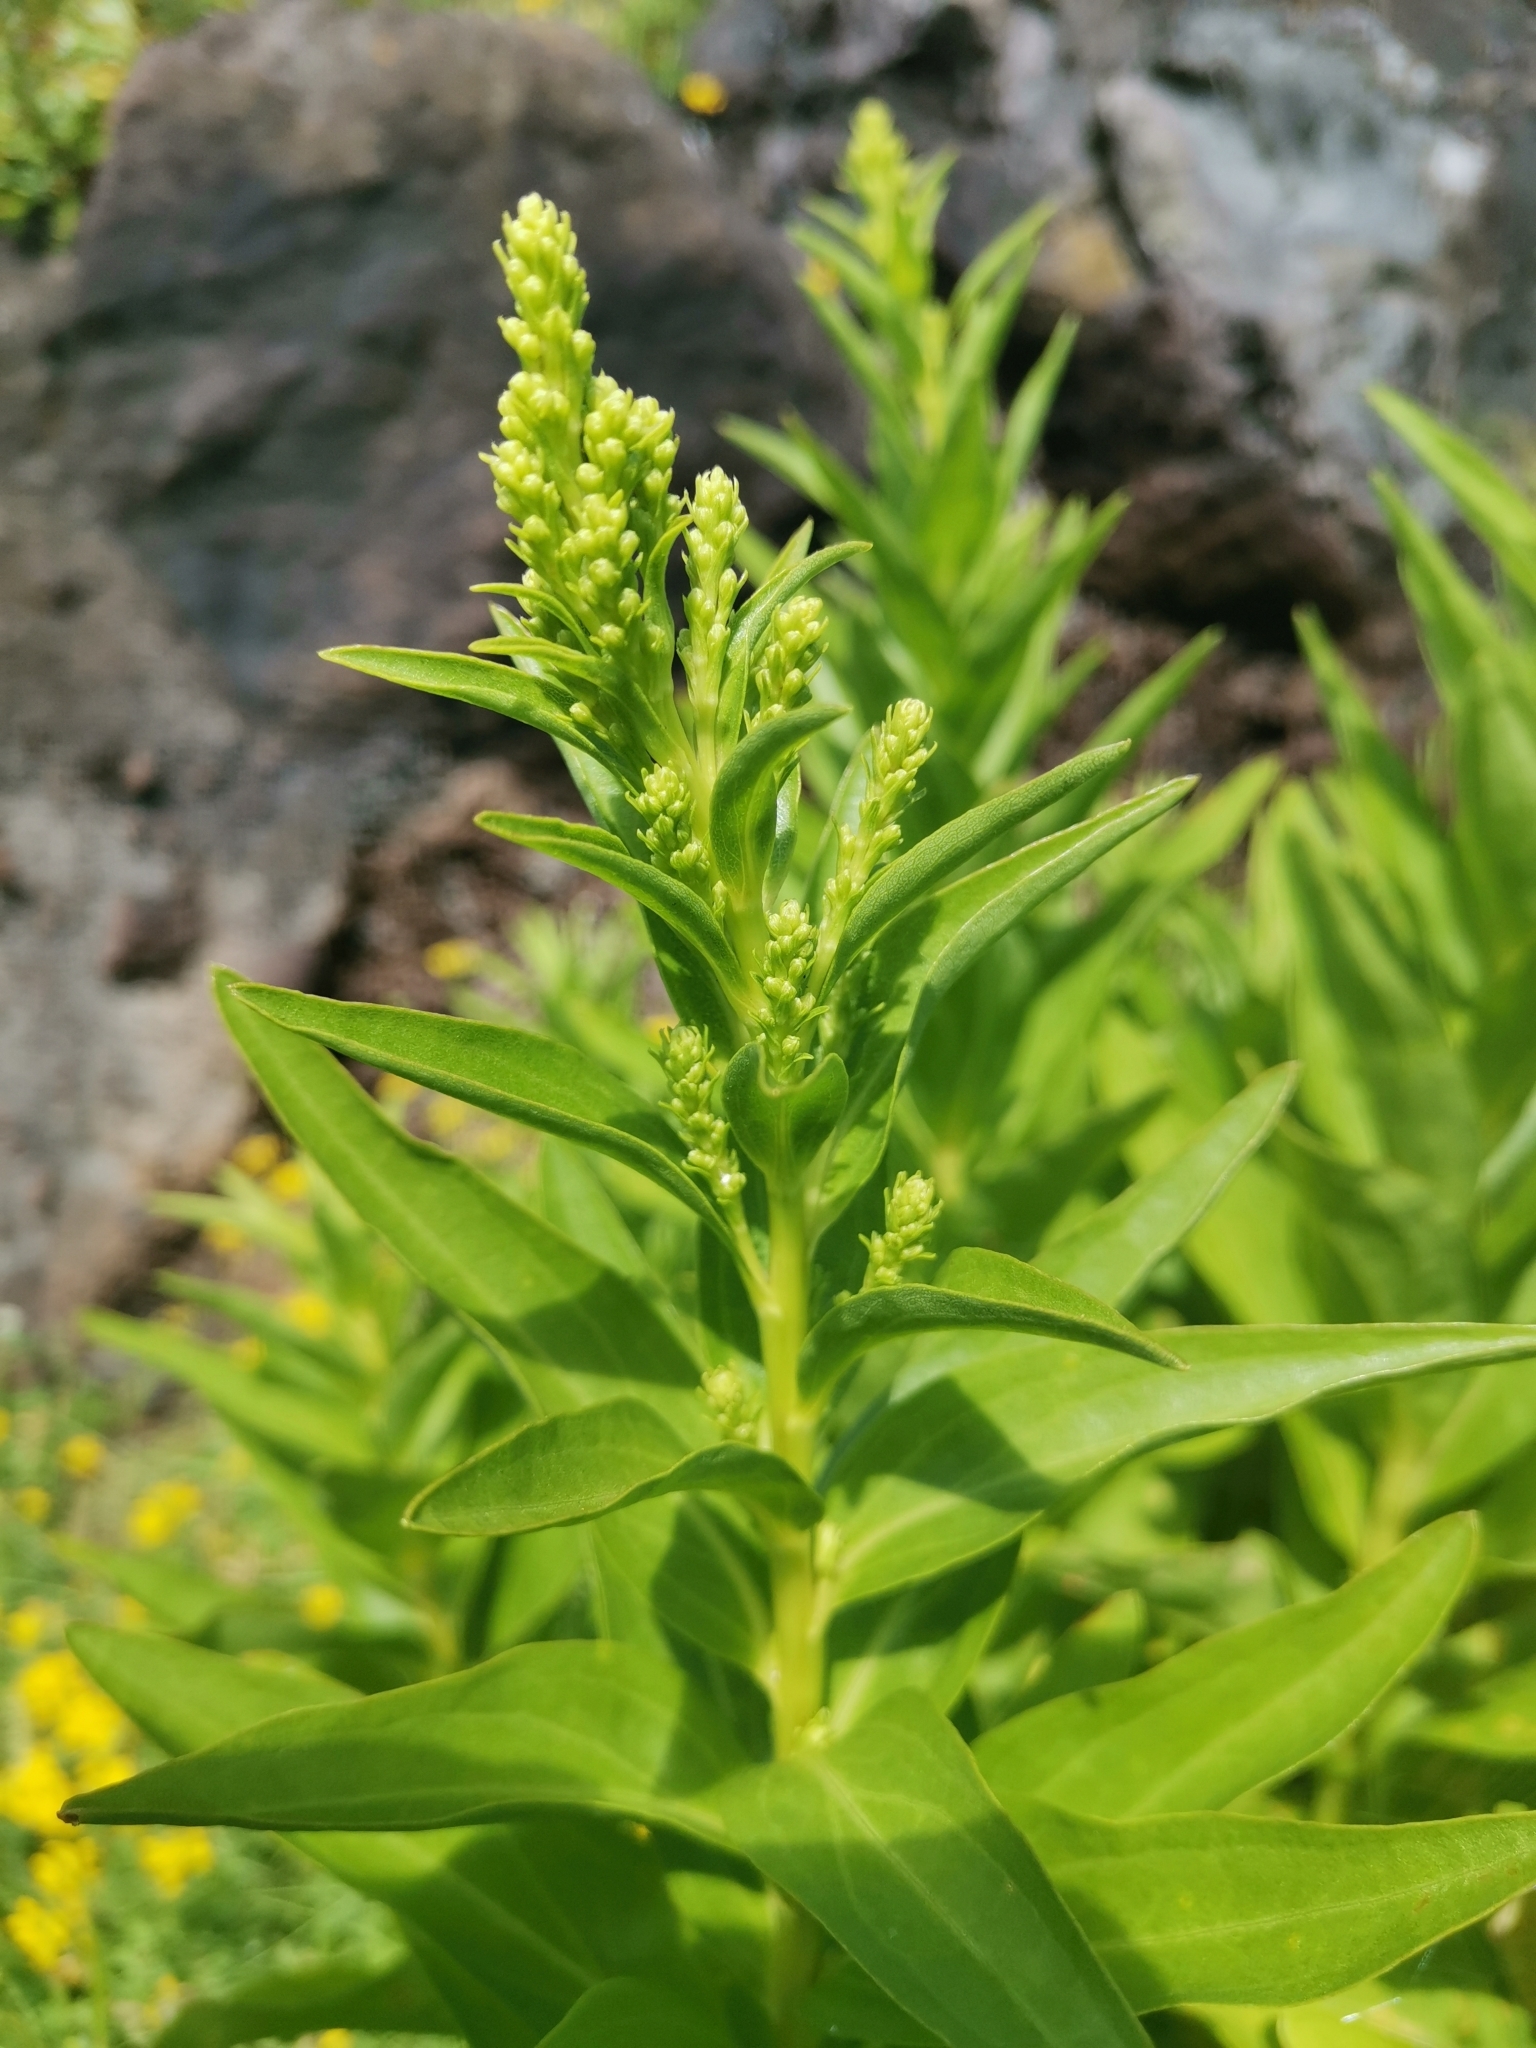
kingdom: Plantae
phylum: Tracheophyta
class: Magnoliopsida
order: Asterales
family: Asteraceae
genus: Solidago
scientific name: Solidago azorica
